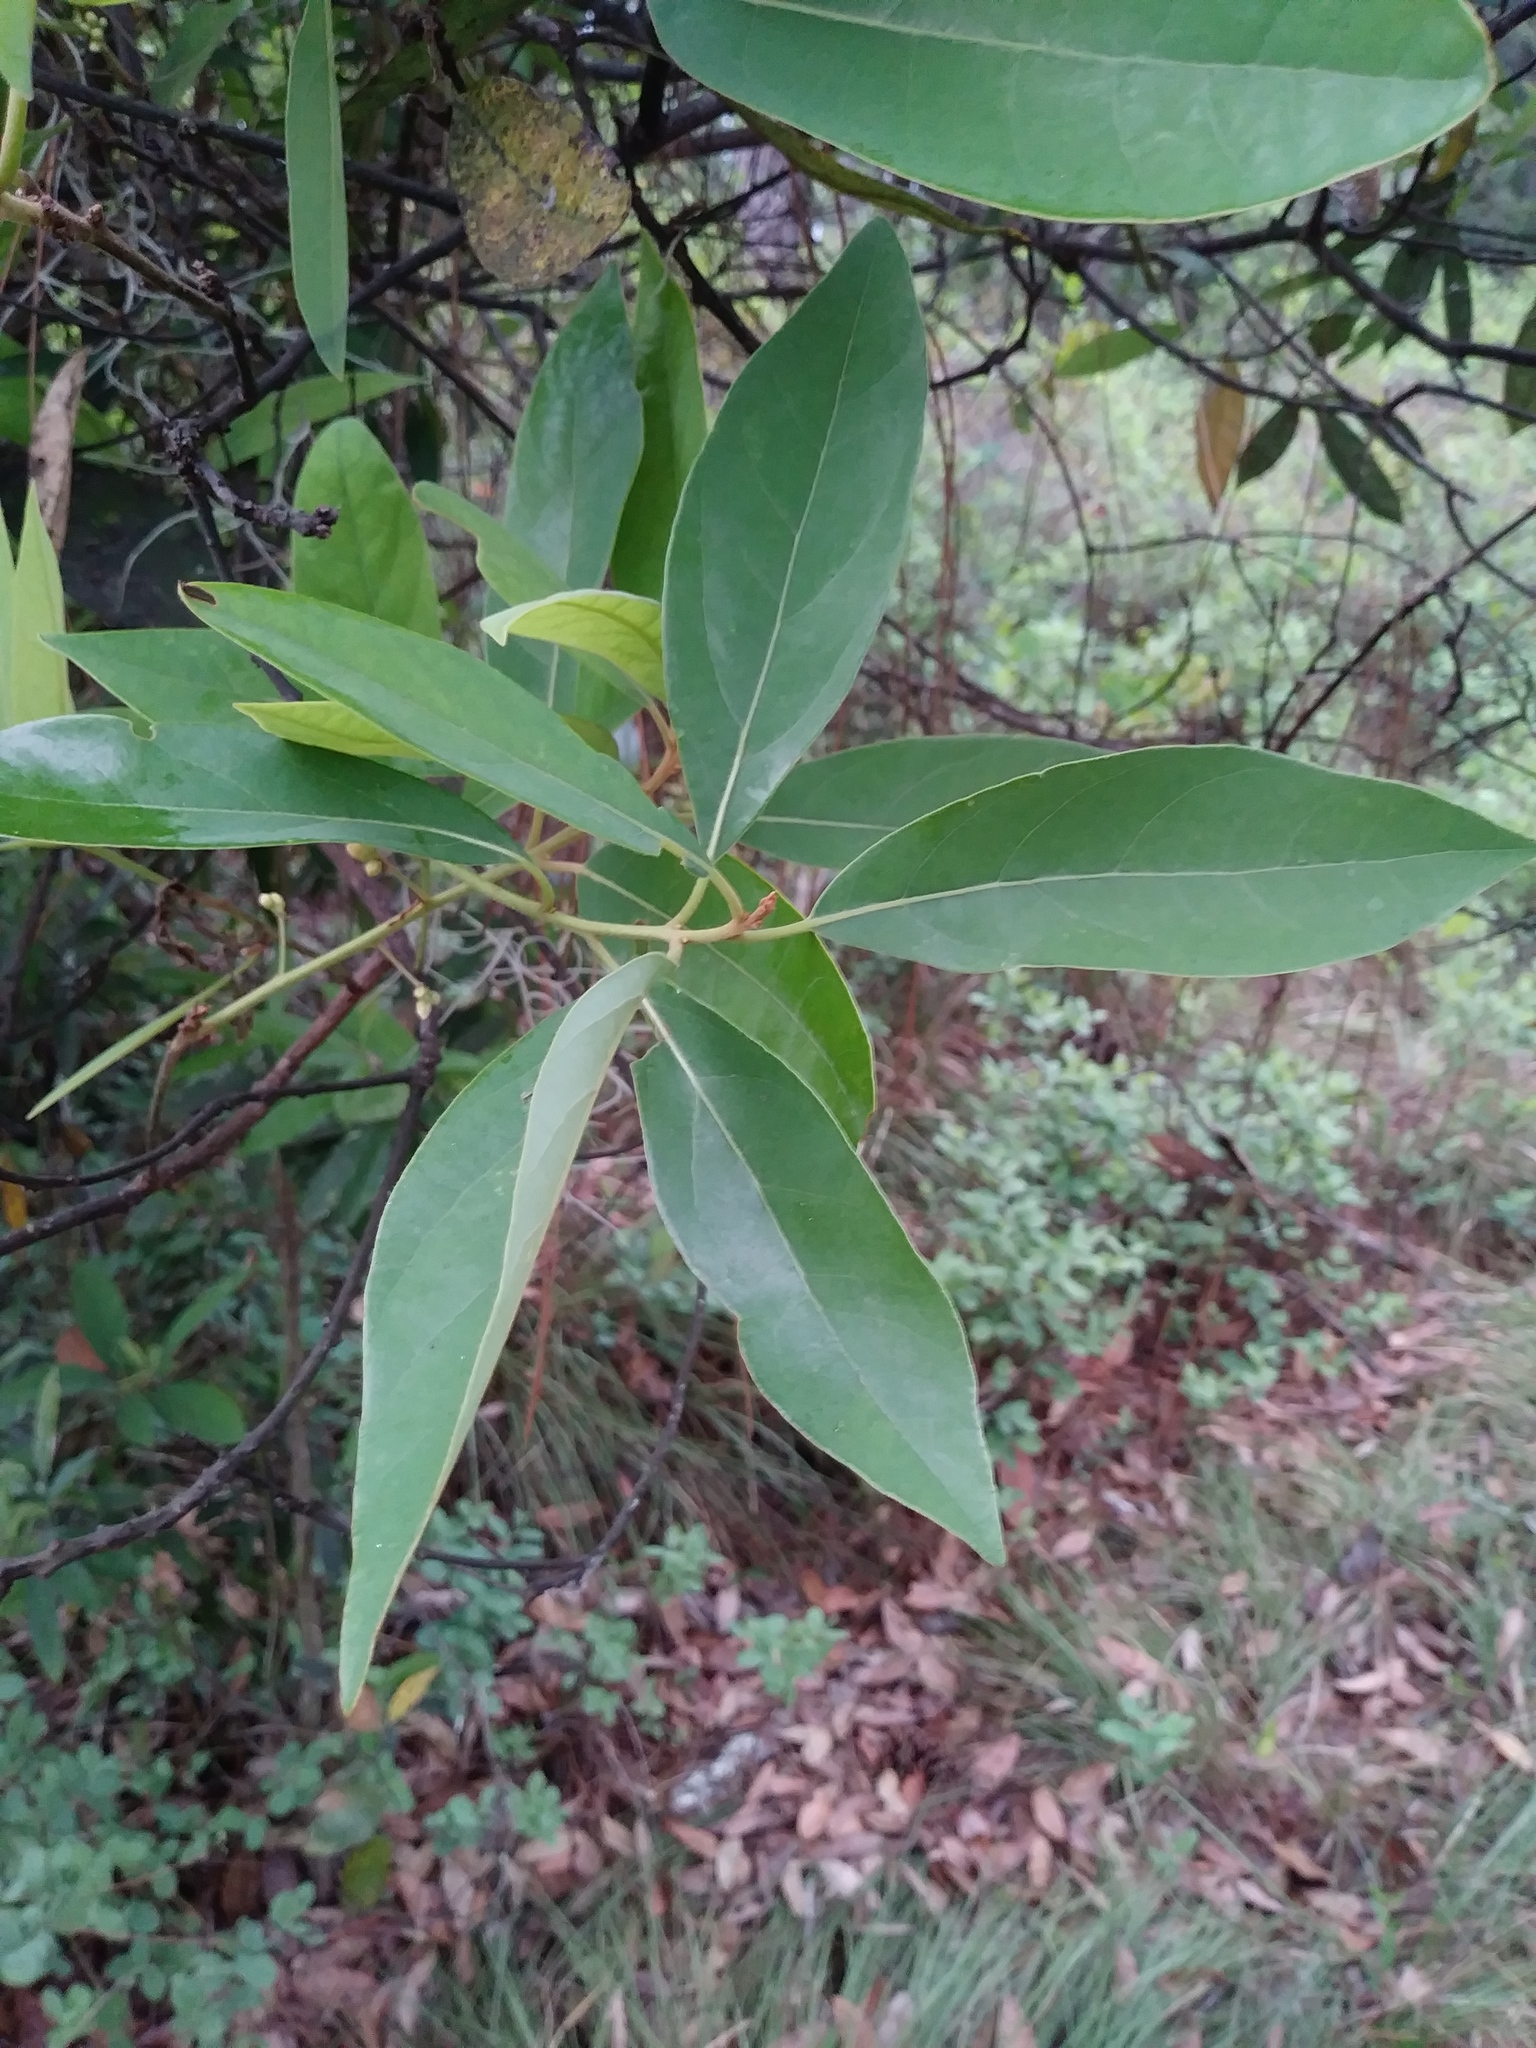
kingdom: Plantae
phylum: Tracheophyta
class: Magnoliopsida
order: Laurales
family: Lauraceae
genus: Persea
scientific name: Persea borbonia
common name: Redbay
